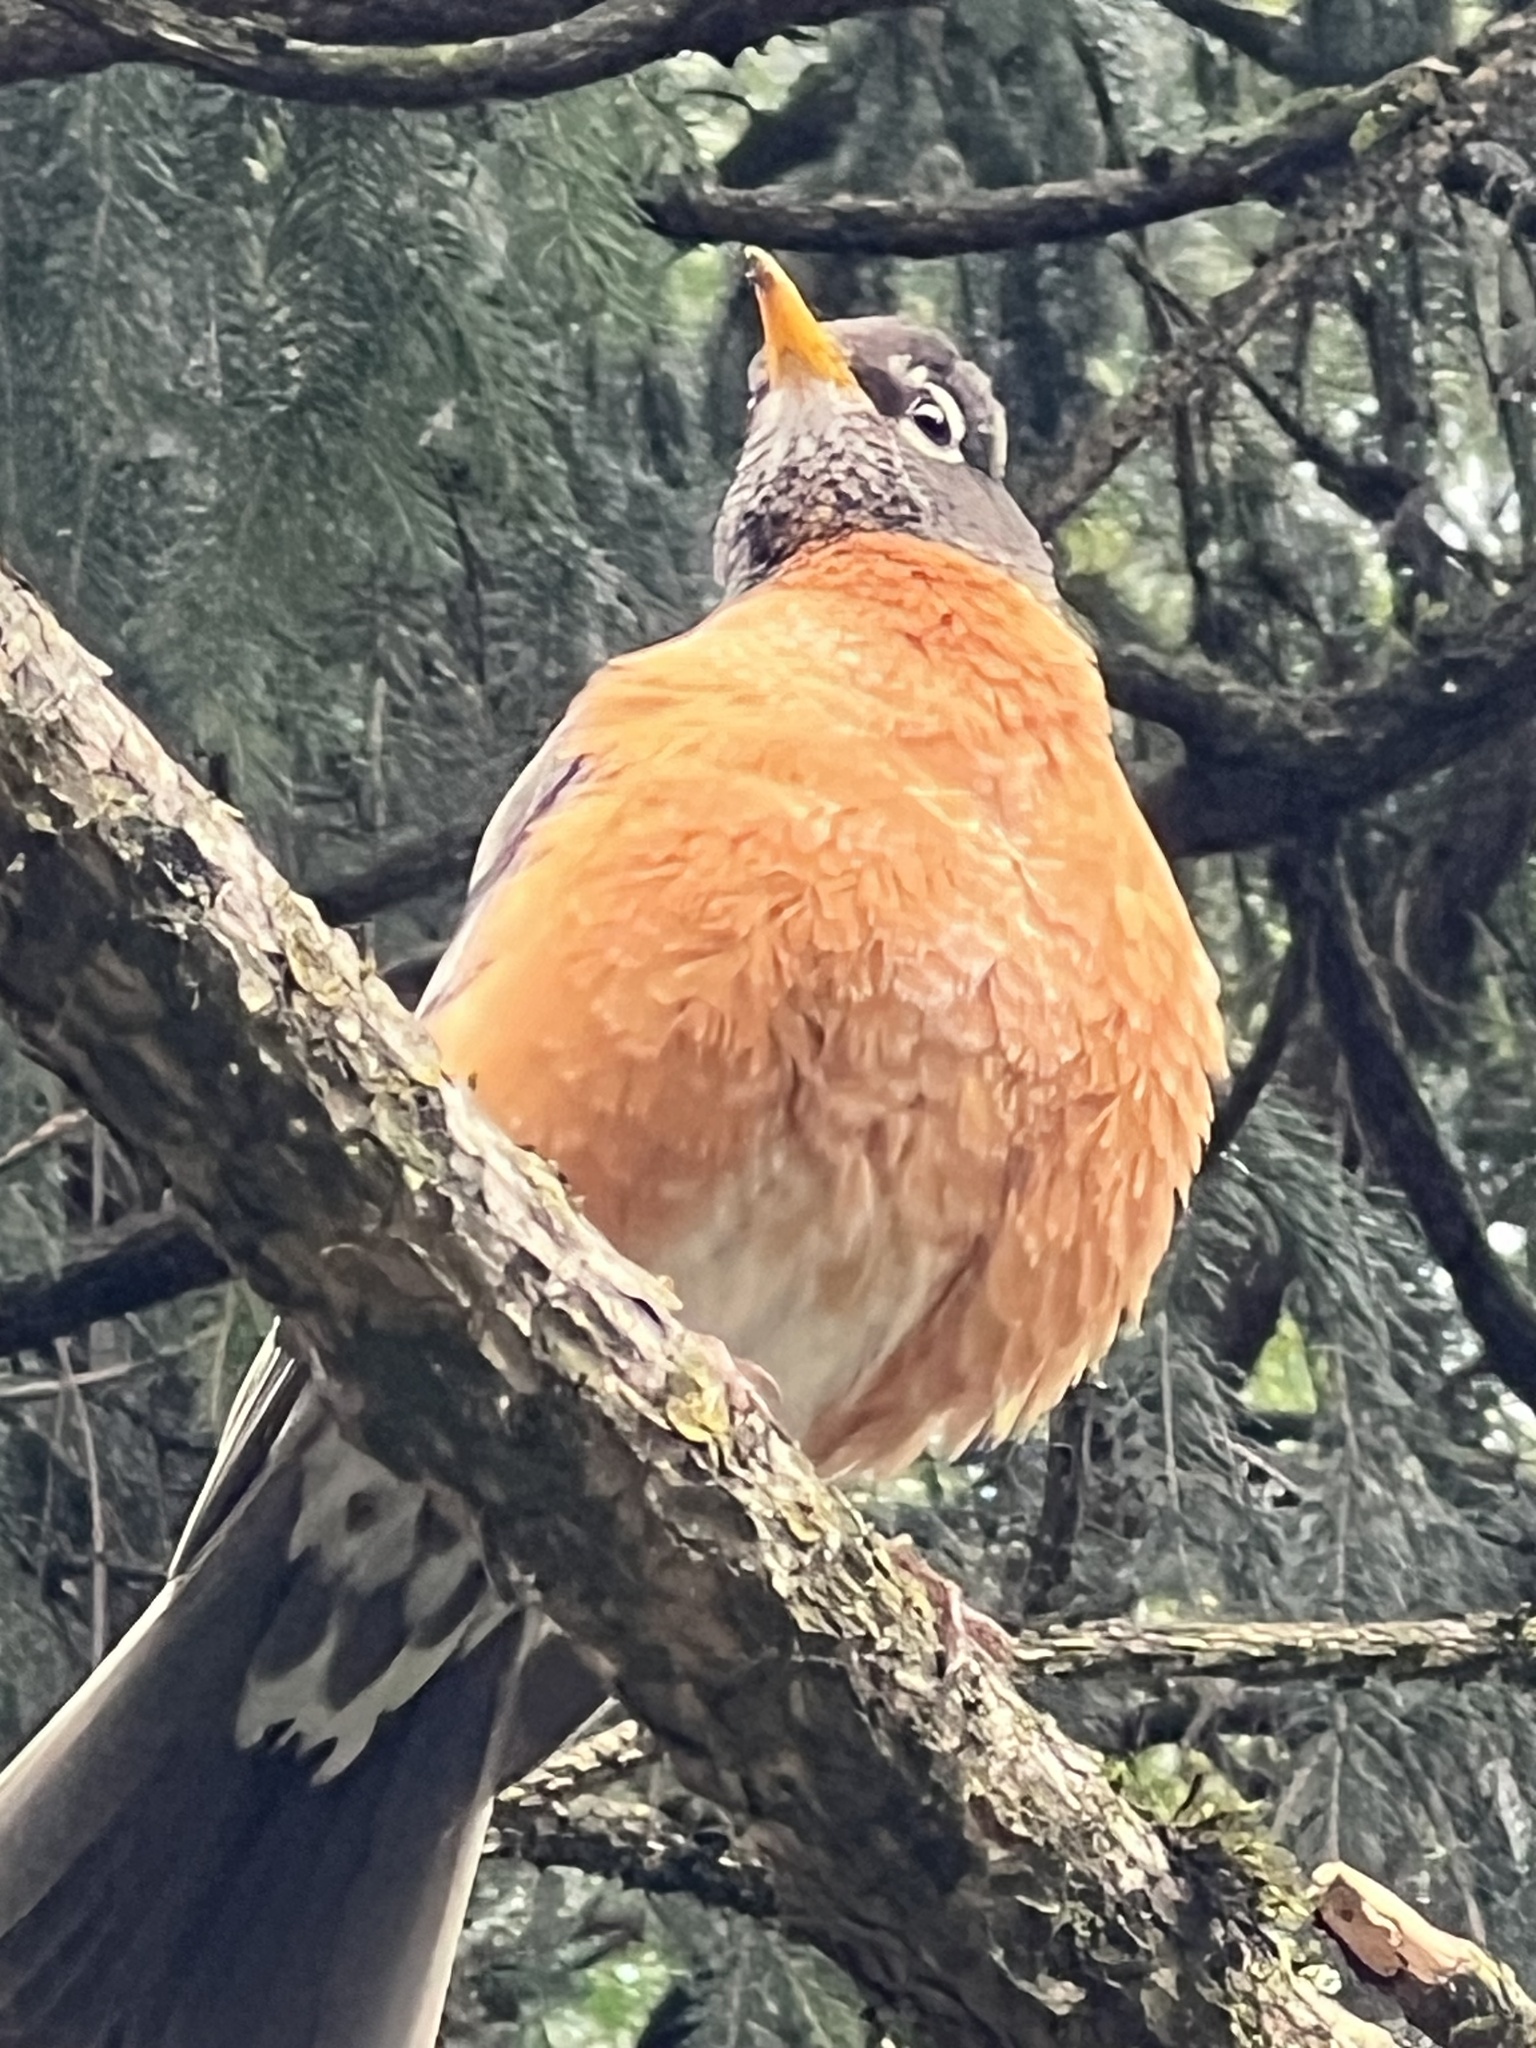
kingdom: Animalia
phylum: Chordata
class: Aves
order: Passeriformes
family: Turdidae
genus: Turdus
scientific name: Turdus migratorius
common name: American robin
